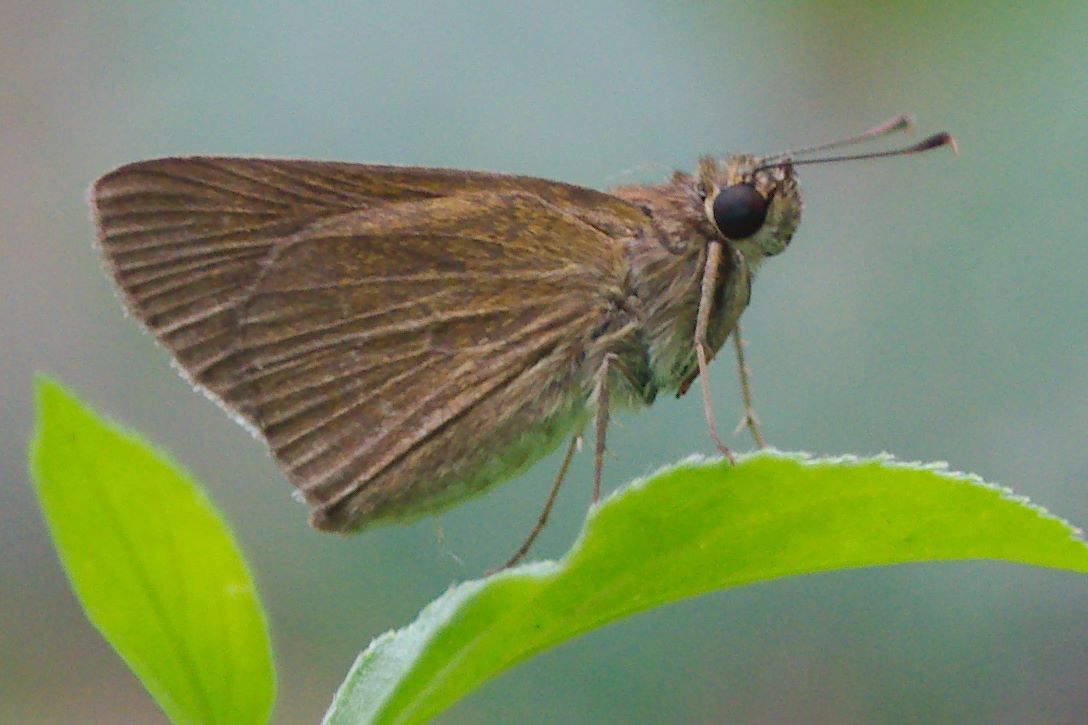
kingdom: Animalia
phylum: Arthropoda
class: Insecta
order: Lepidoptera
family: Hesperiidae
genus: Cymaenes
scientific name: Cymaenes tripunctus
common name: Dingy dotted skipper
